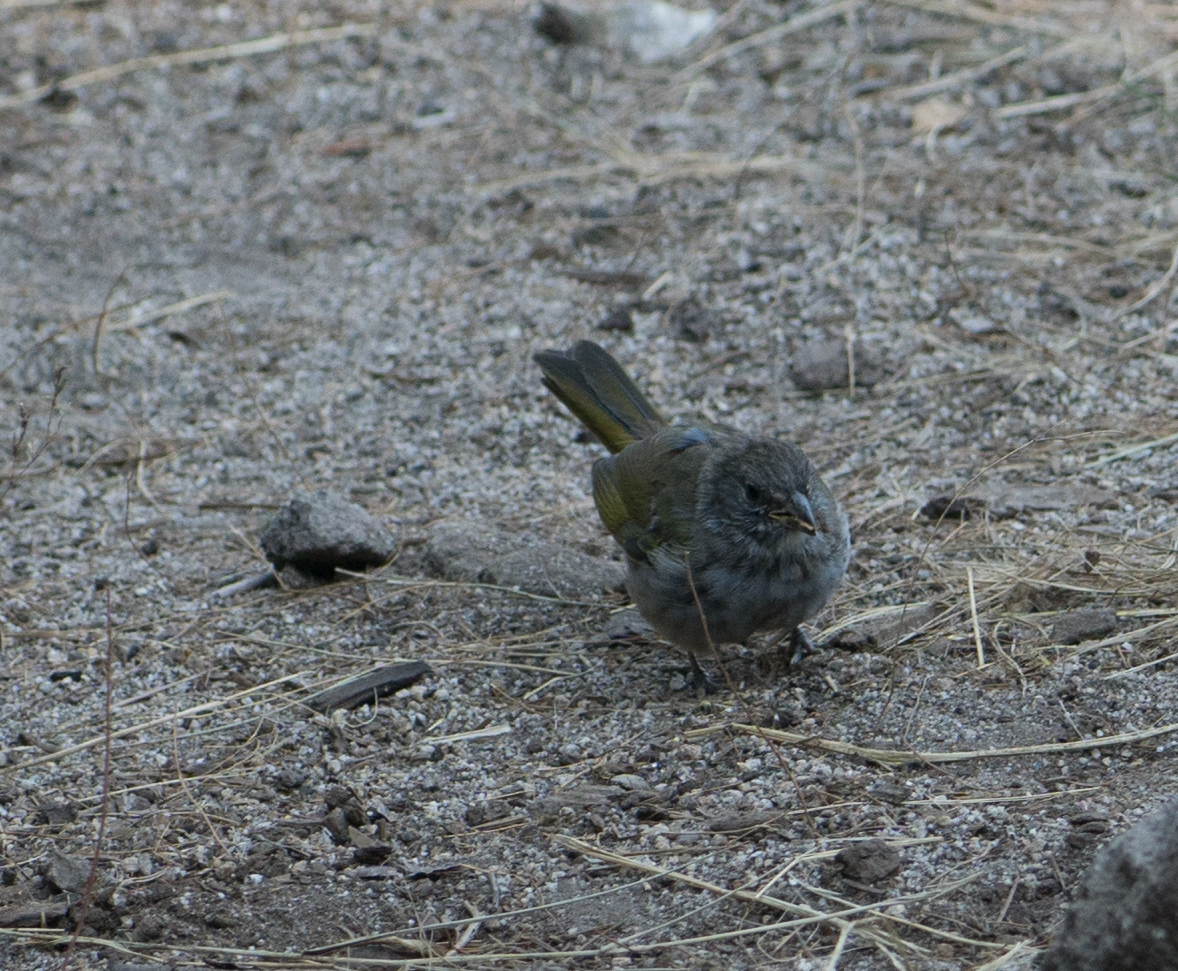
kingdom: Animalia
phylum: Chordata
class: Aves
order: Passeriformes
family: Passerellidae
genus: Pipilo
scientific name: Pipilo chlorurus
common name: Green-tailed towhee
